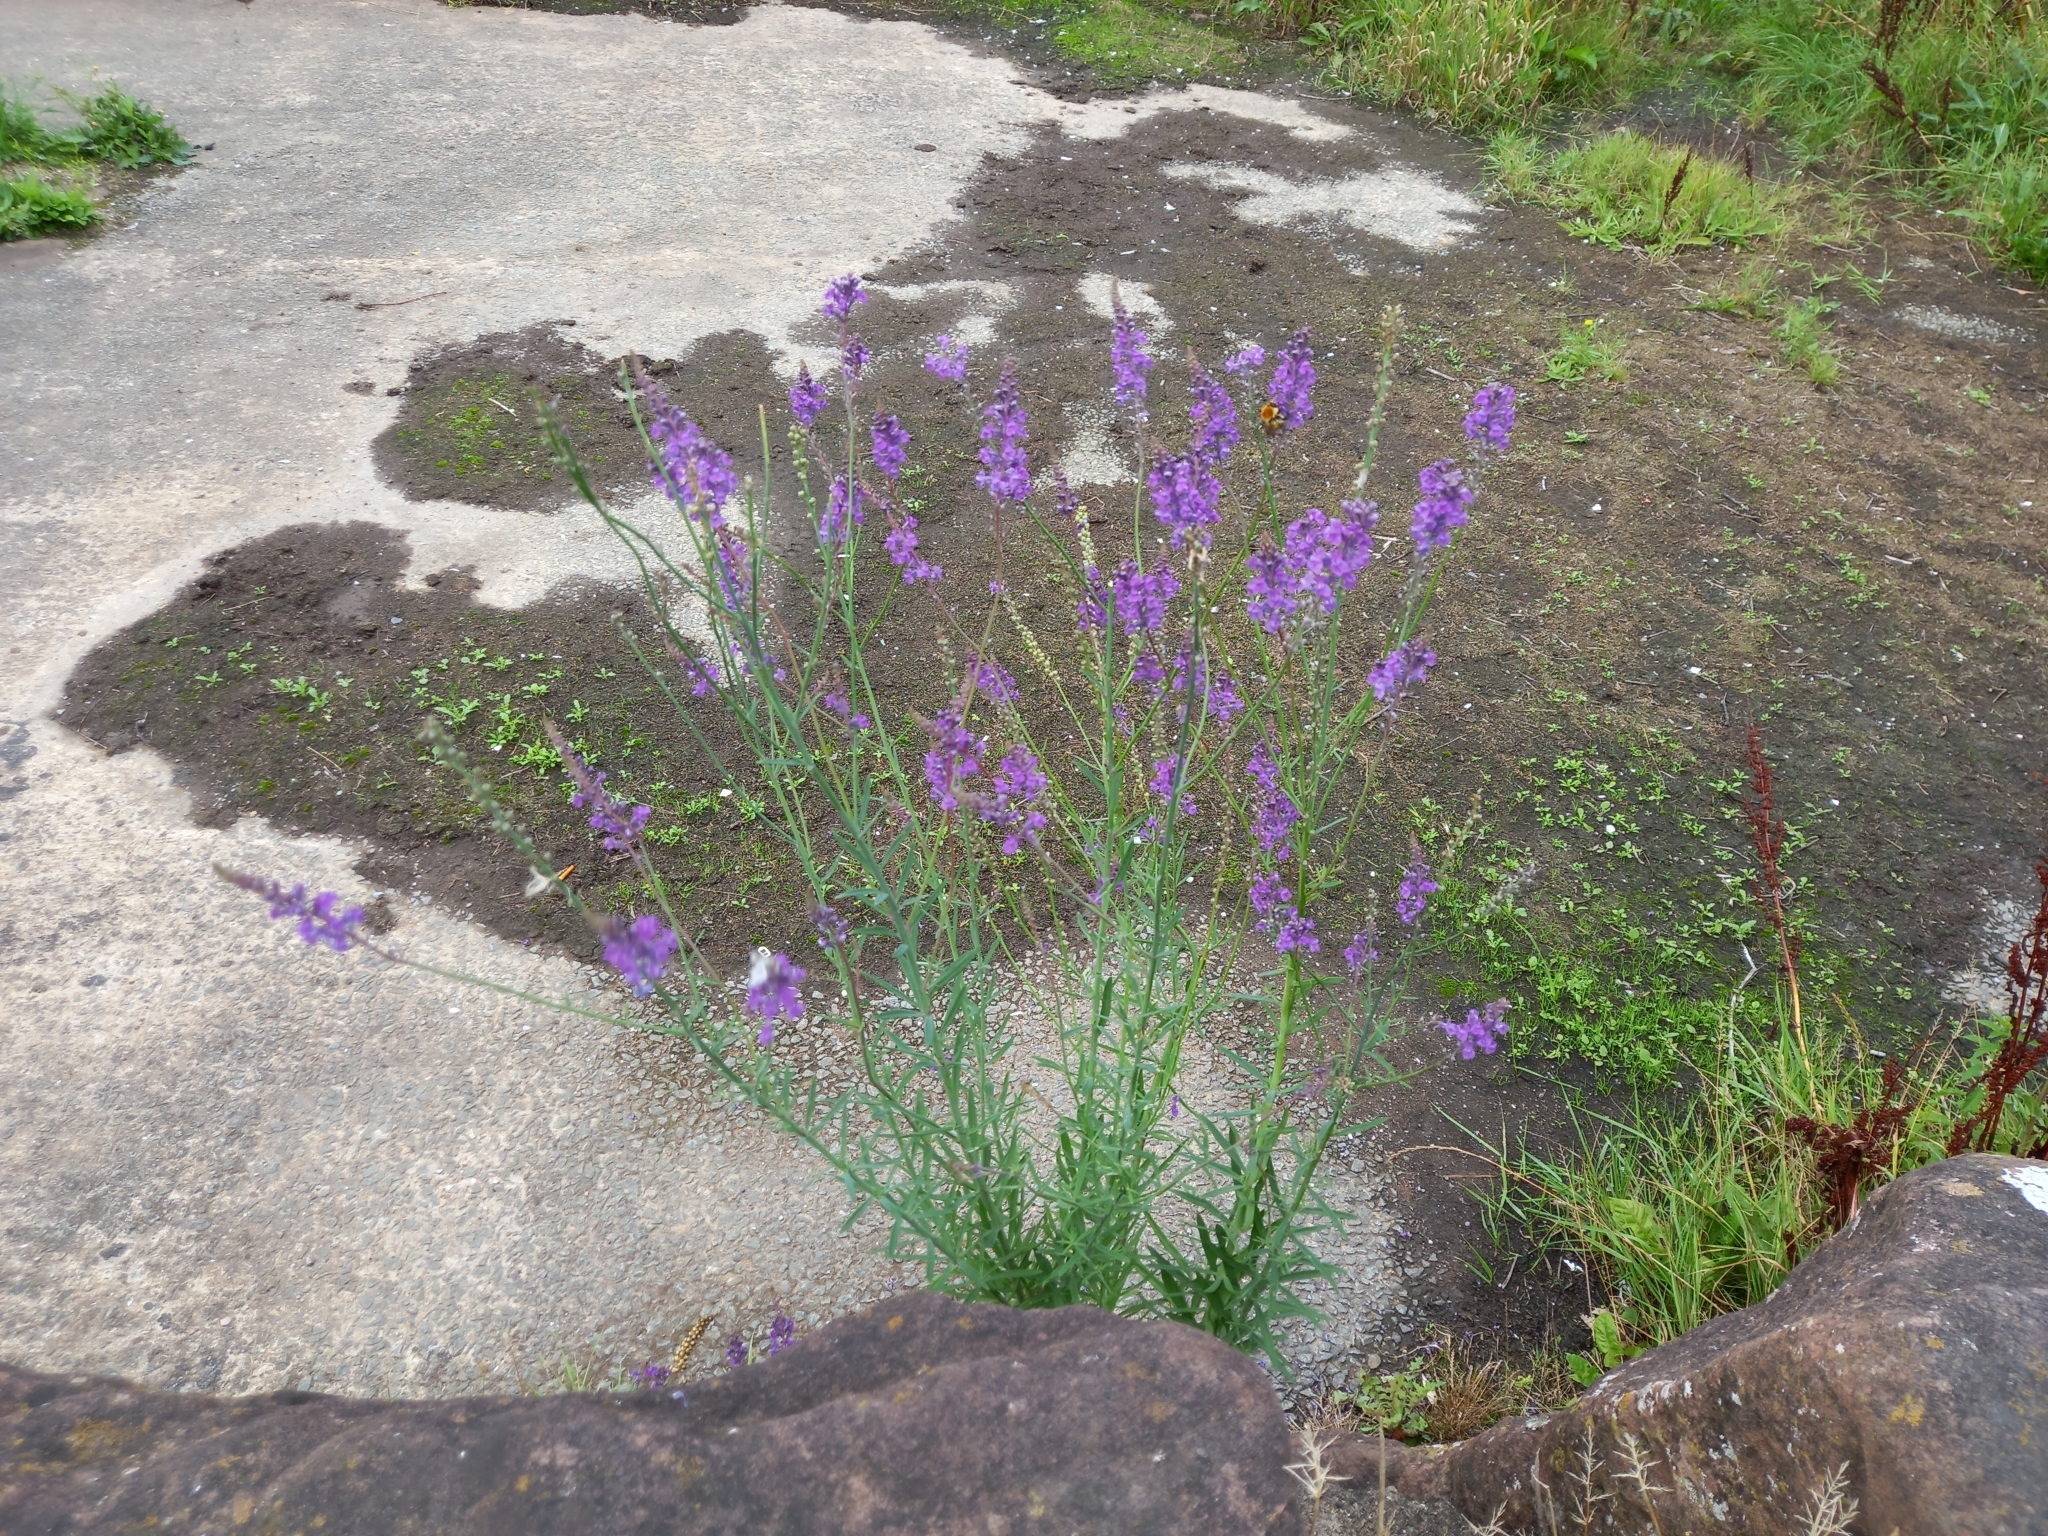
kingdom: Plantae
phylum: Tracheophyta
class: Magnoliopsida
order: Lamiales
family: Plantaginaceae
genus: Linaria
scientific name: Linaria purpurea
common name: Purple toadflax
